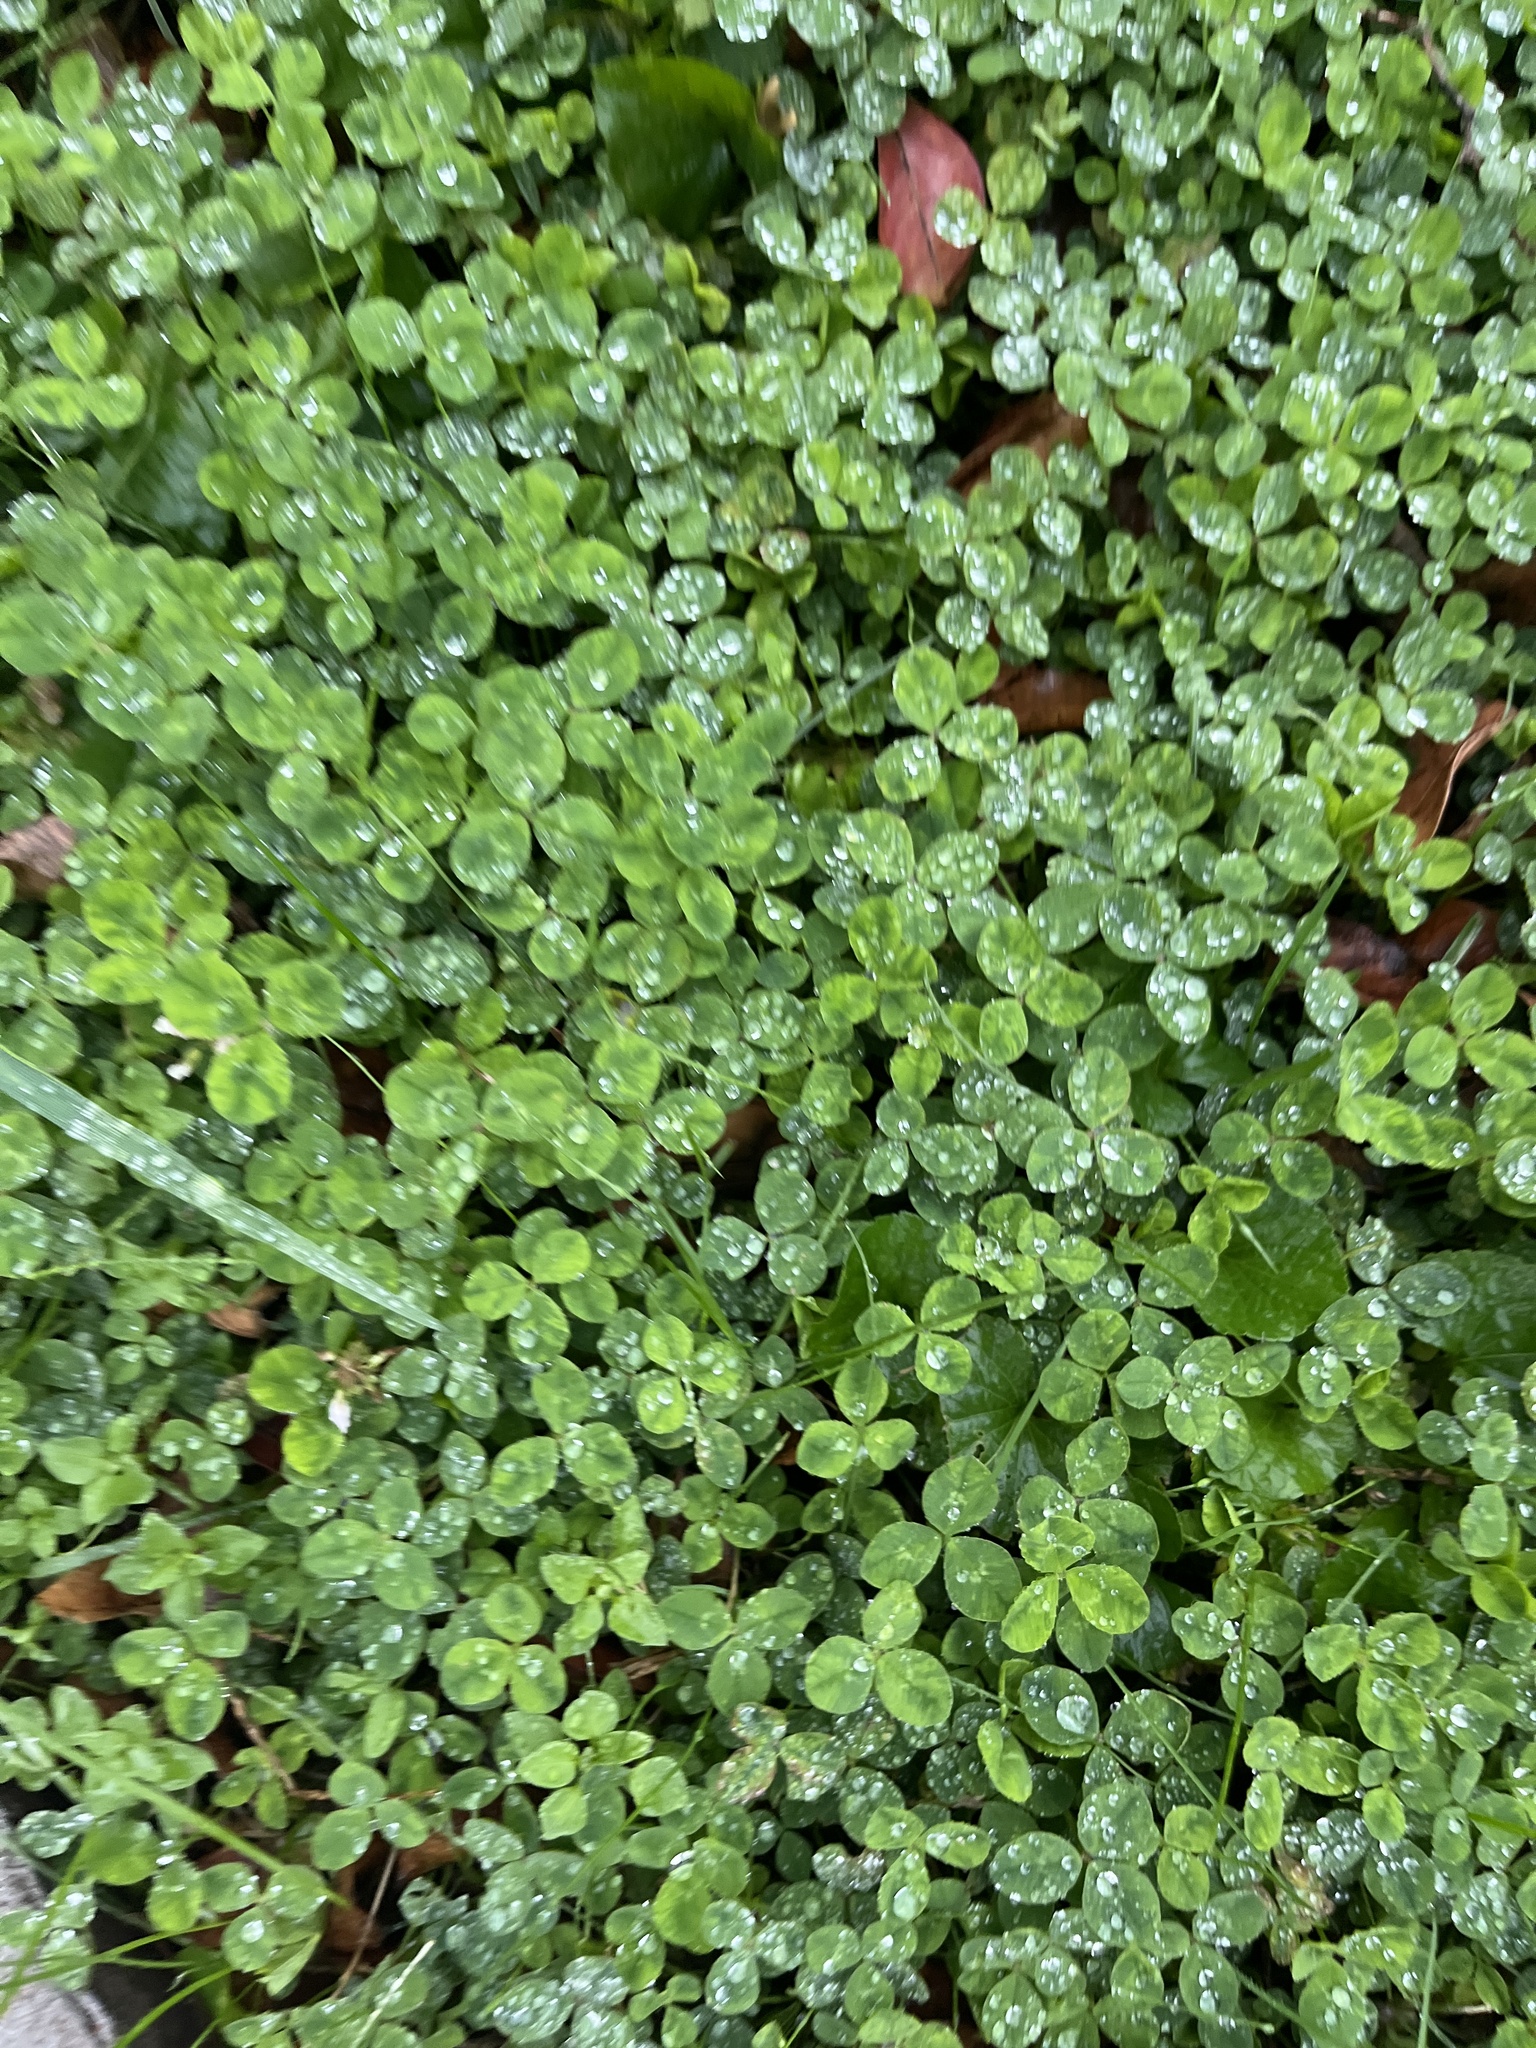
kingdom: Plantae
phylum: Tracheophyta
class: Magnoliopsida
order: Fabales
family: Fabaceae
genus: Trifolium
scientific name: Trifolium repens
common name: White clover
